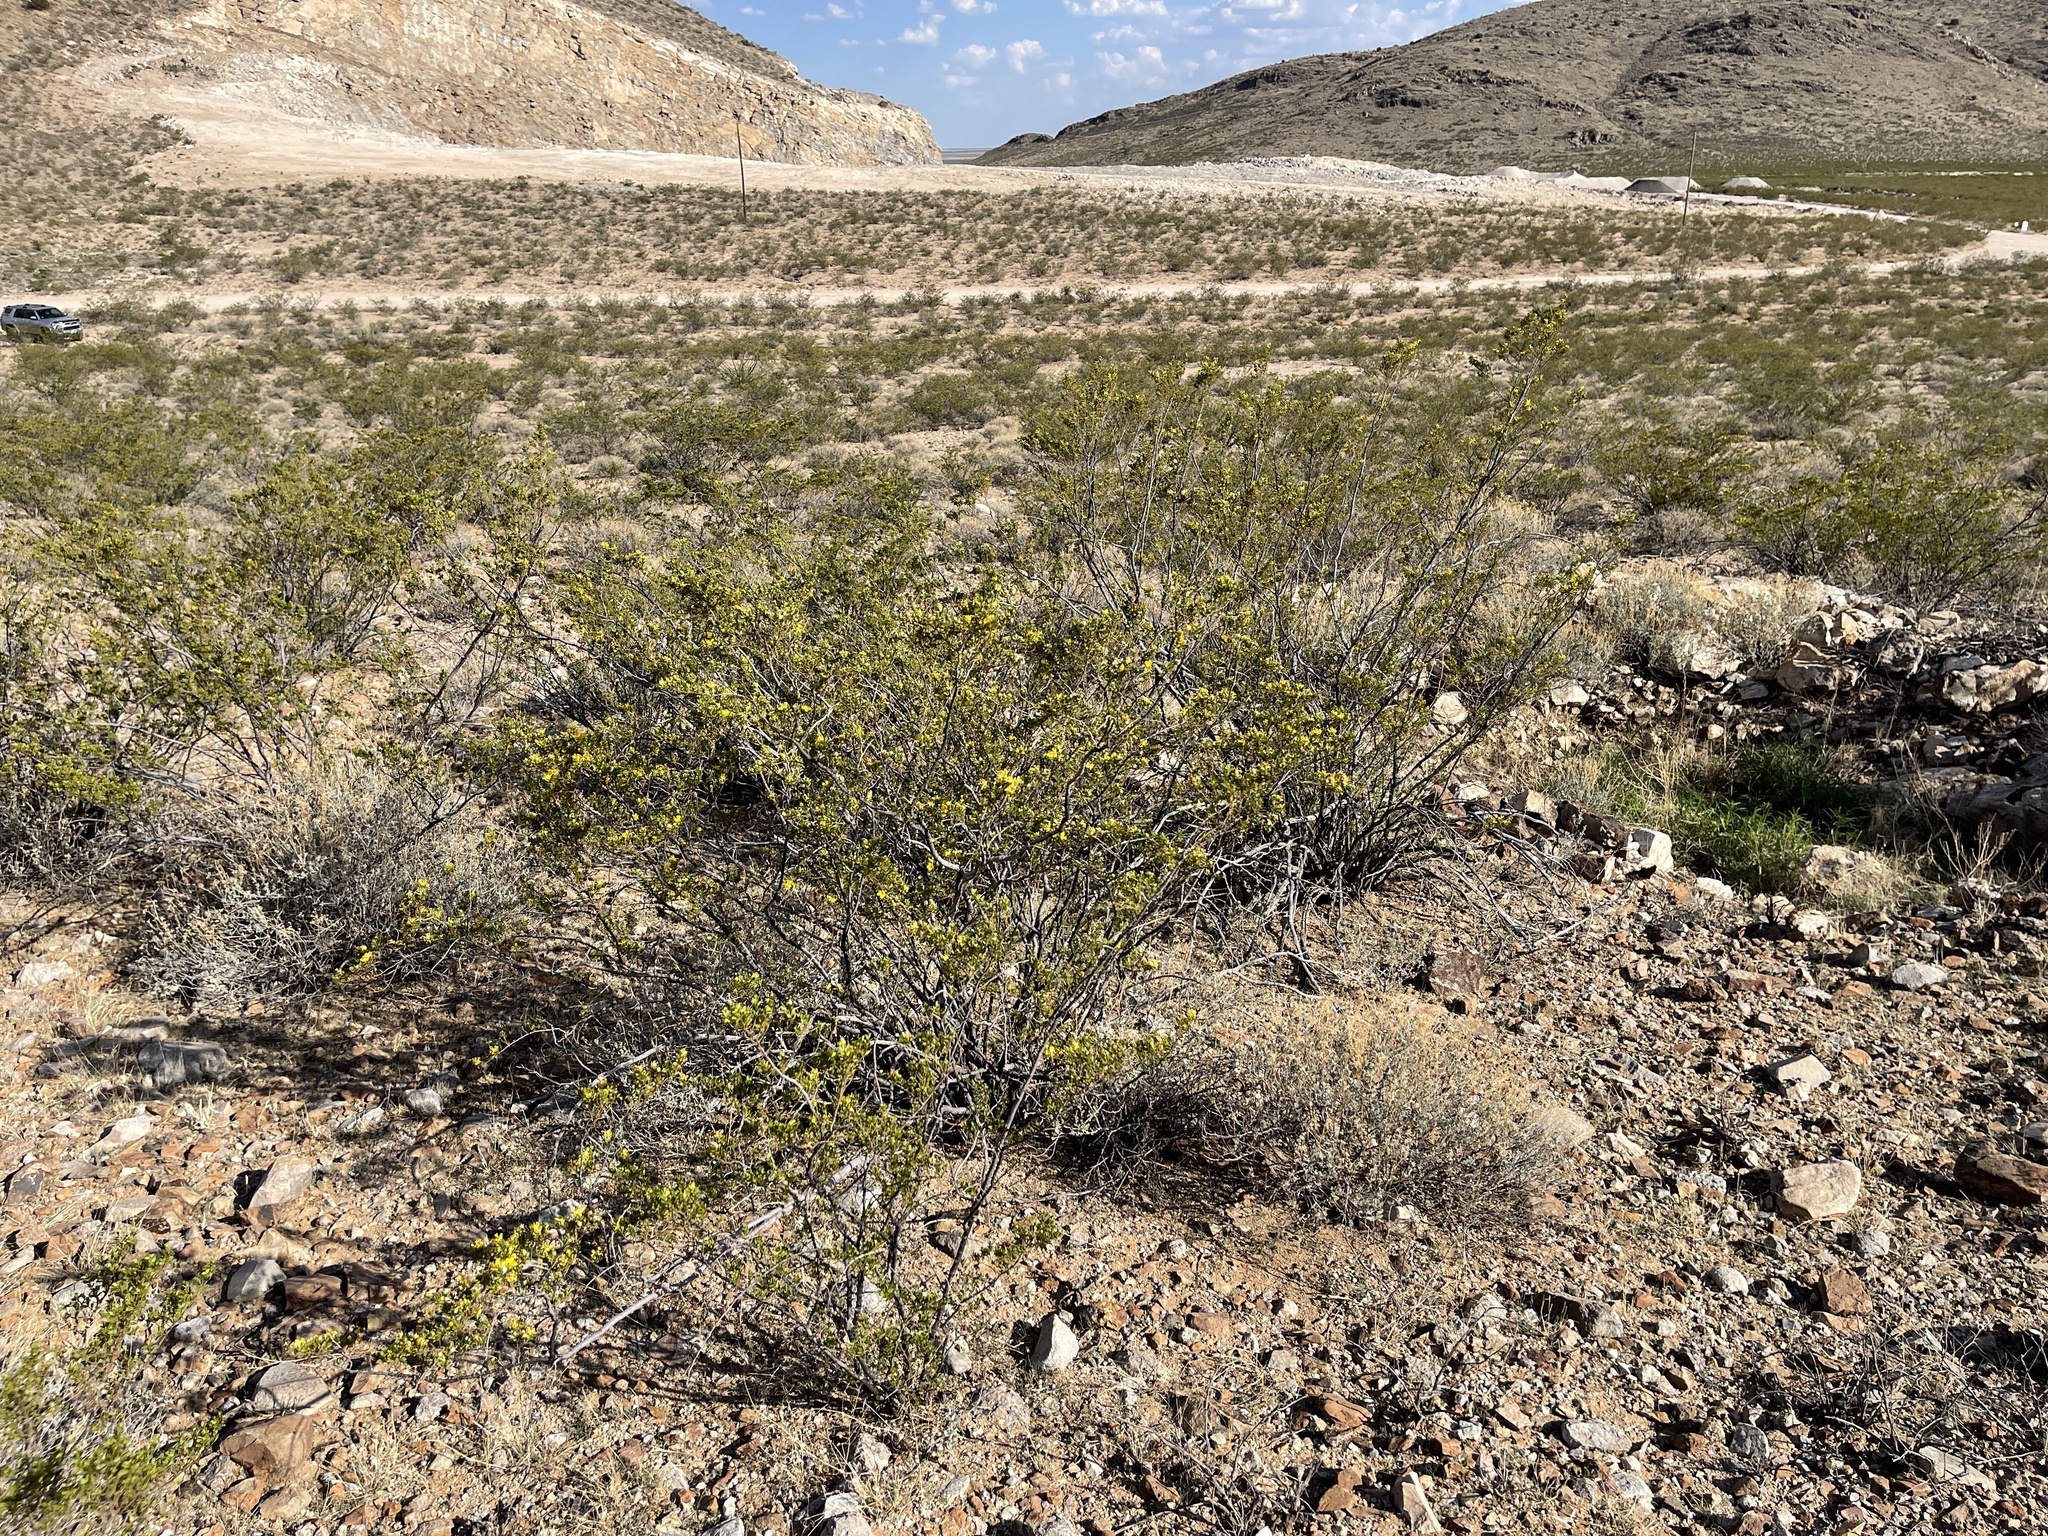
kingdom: Plantae
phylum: Tracheophyta
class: Magnoliopsida
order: Zygophyllales
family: Zygophyllaceae
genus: Larrea
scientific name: Larrea tridentata
